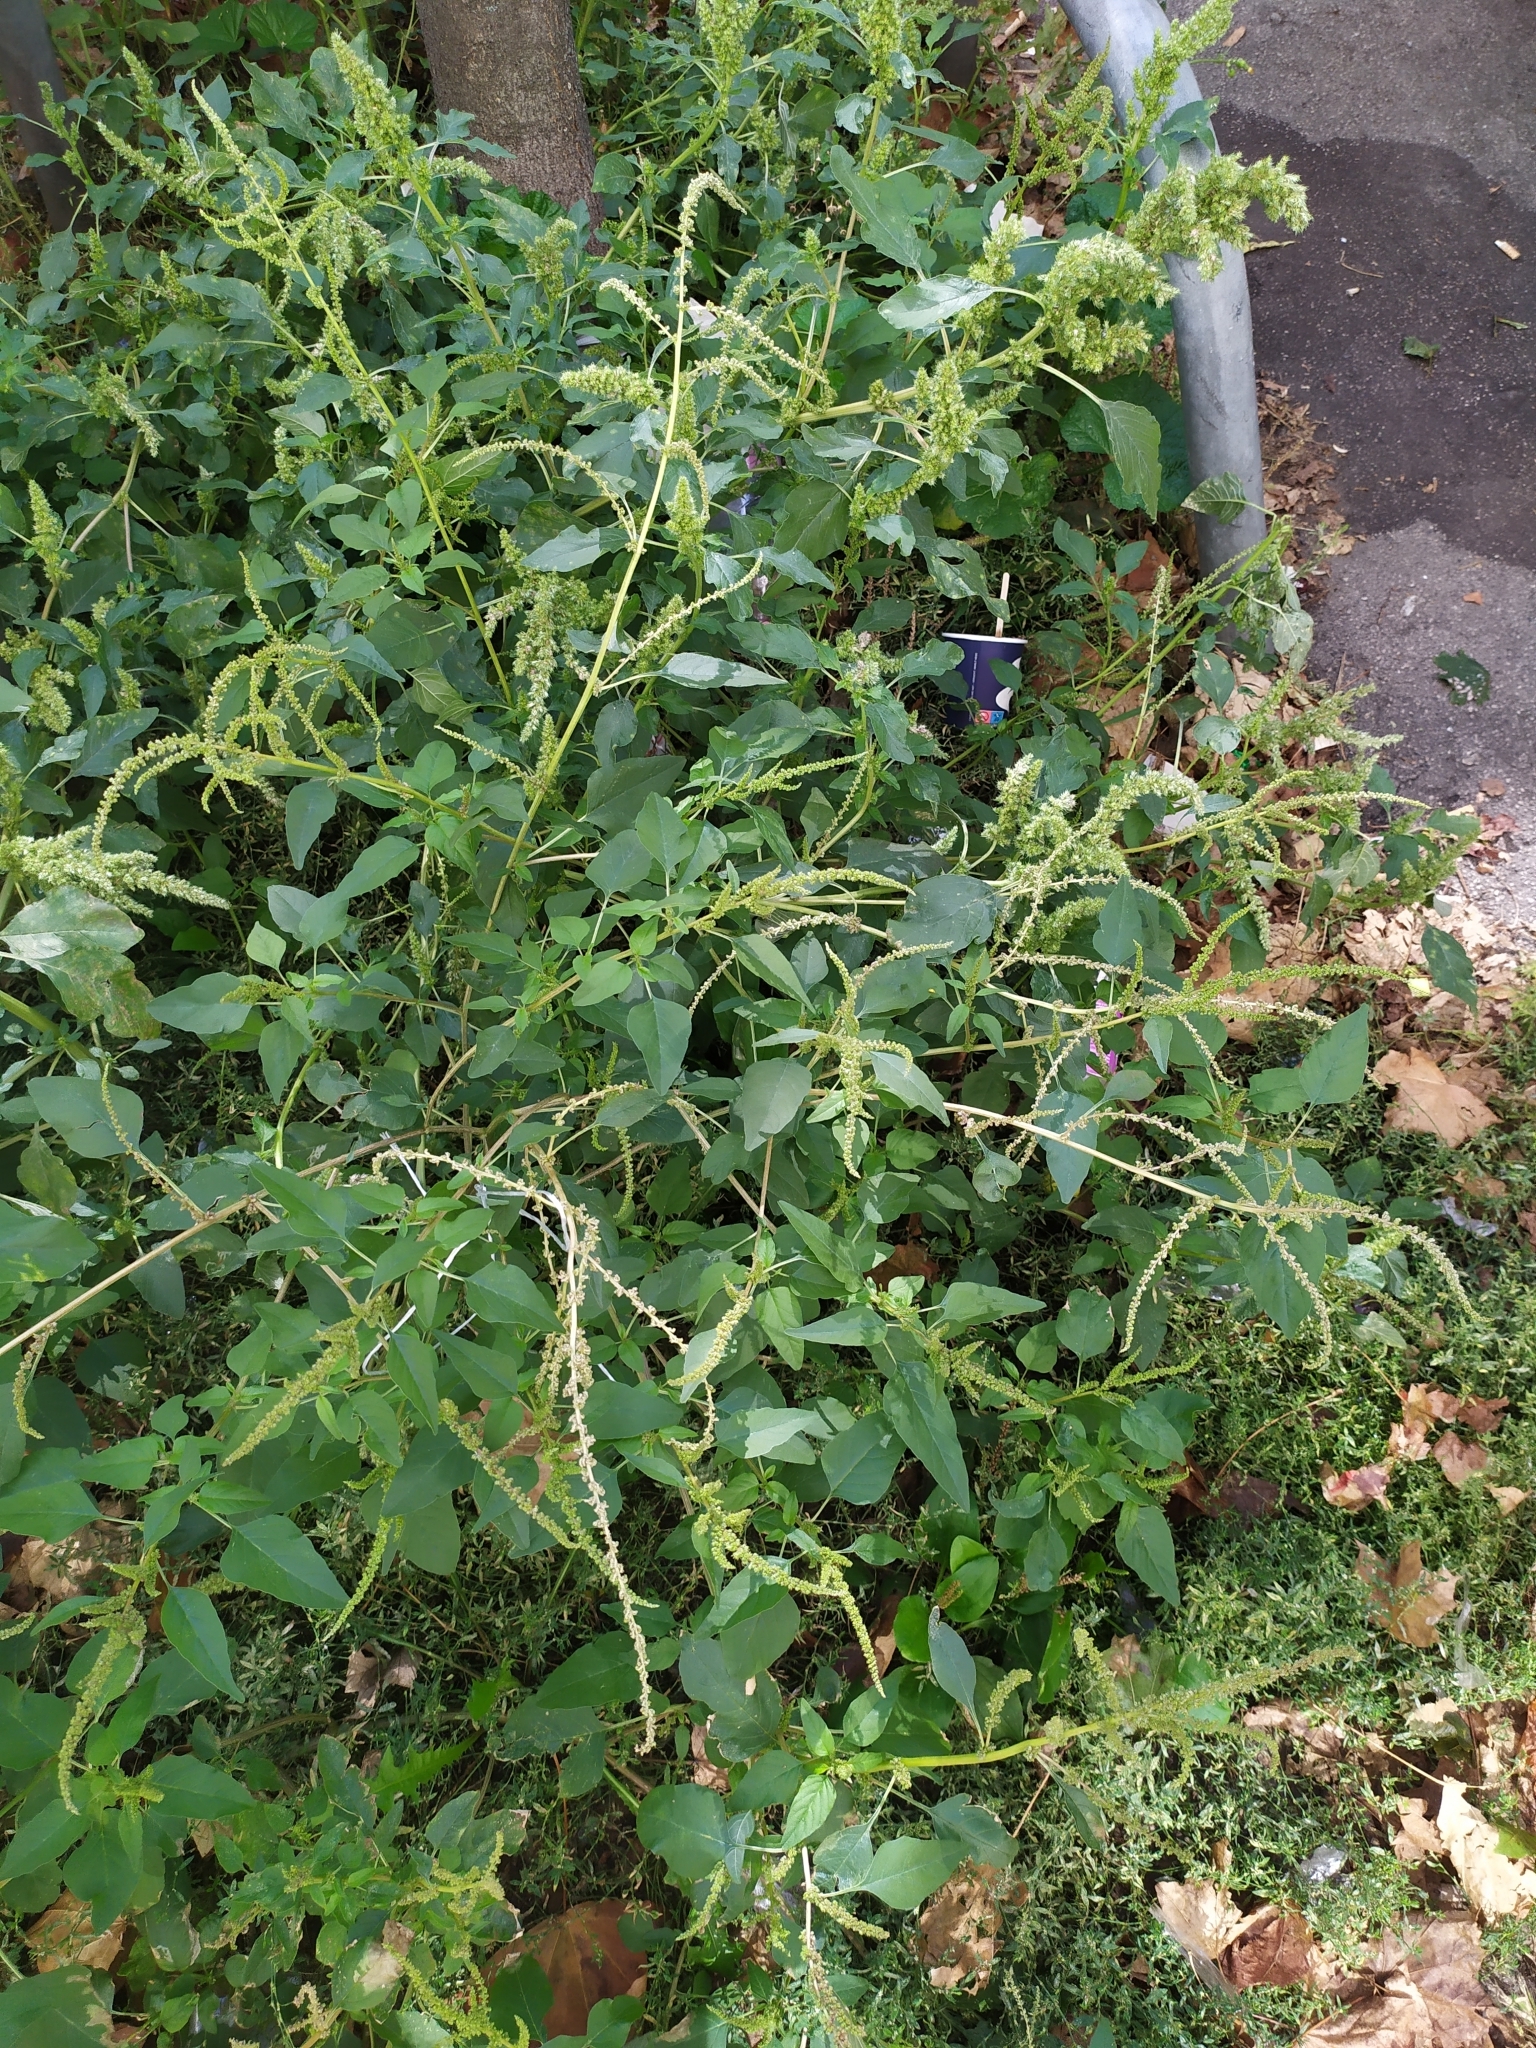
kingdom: Plantae
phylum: Tracheophyta
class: Magnoliopsida
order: Caryophyllales
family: Amaranthaceae
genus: Amaranthus
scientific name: Amaranthus viridis
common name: Slender amaranth
